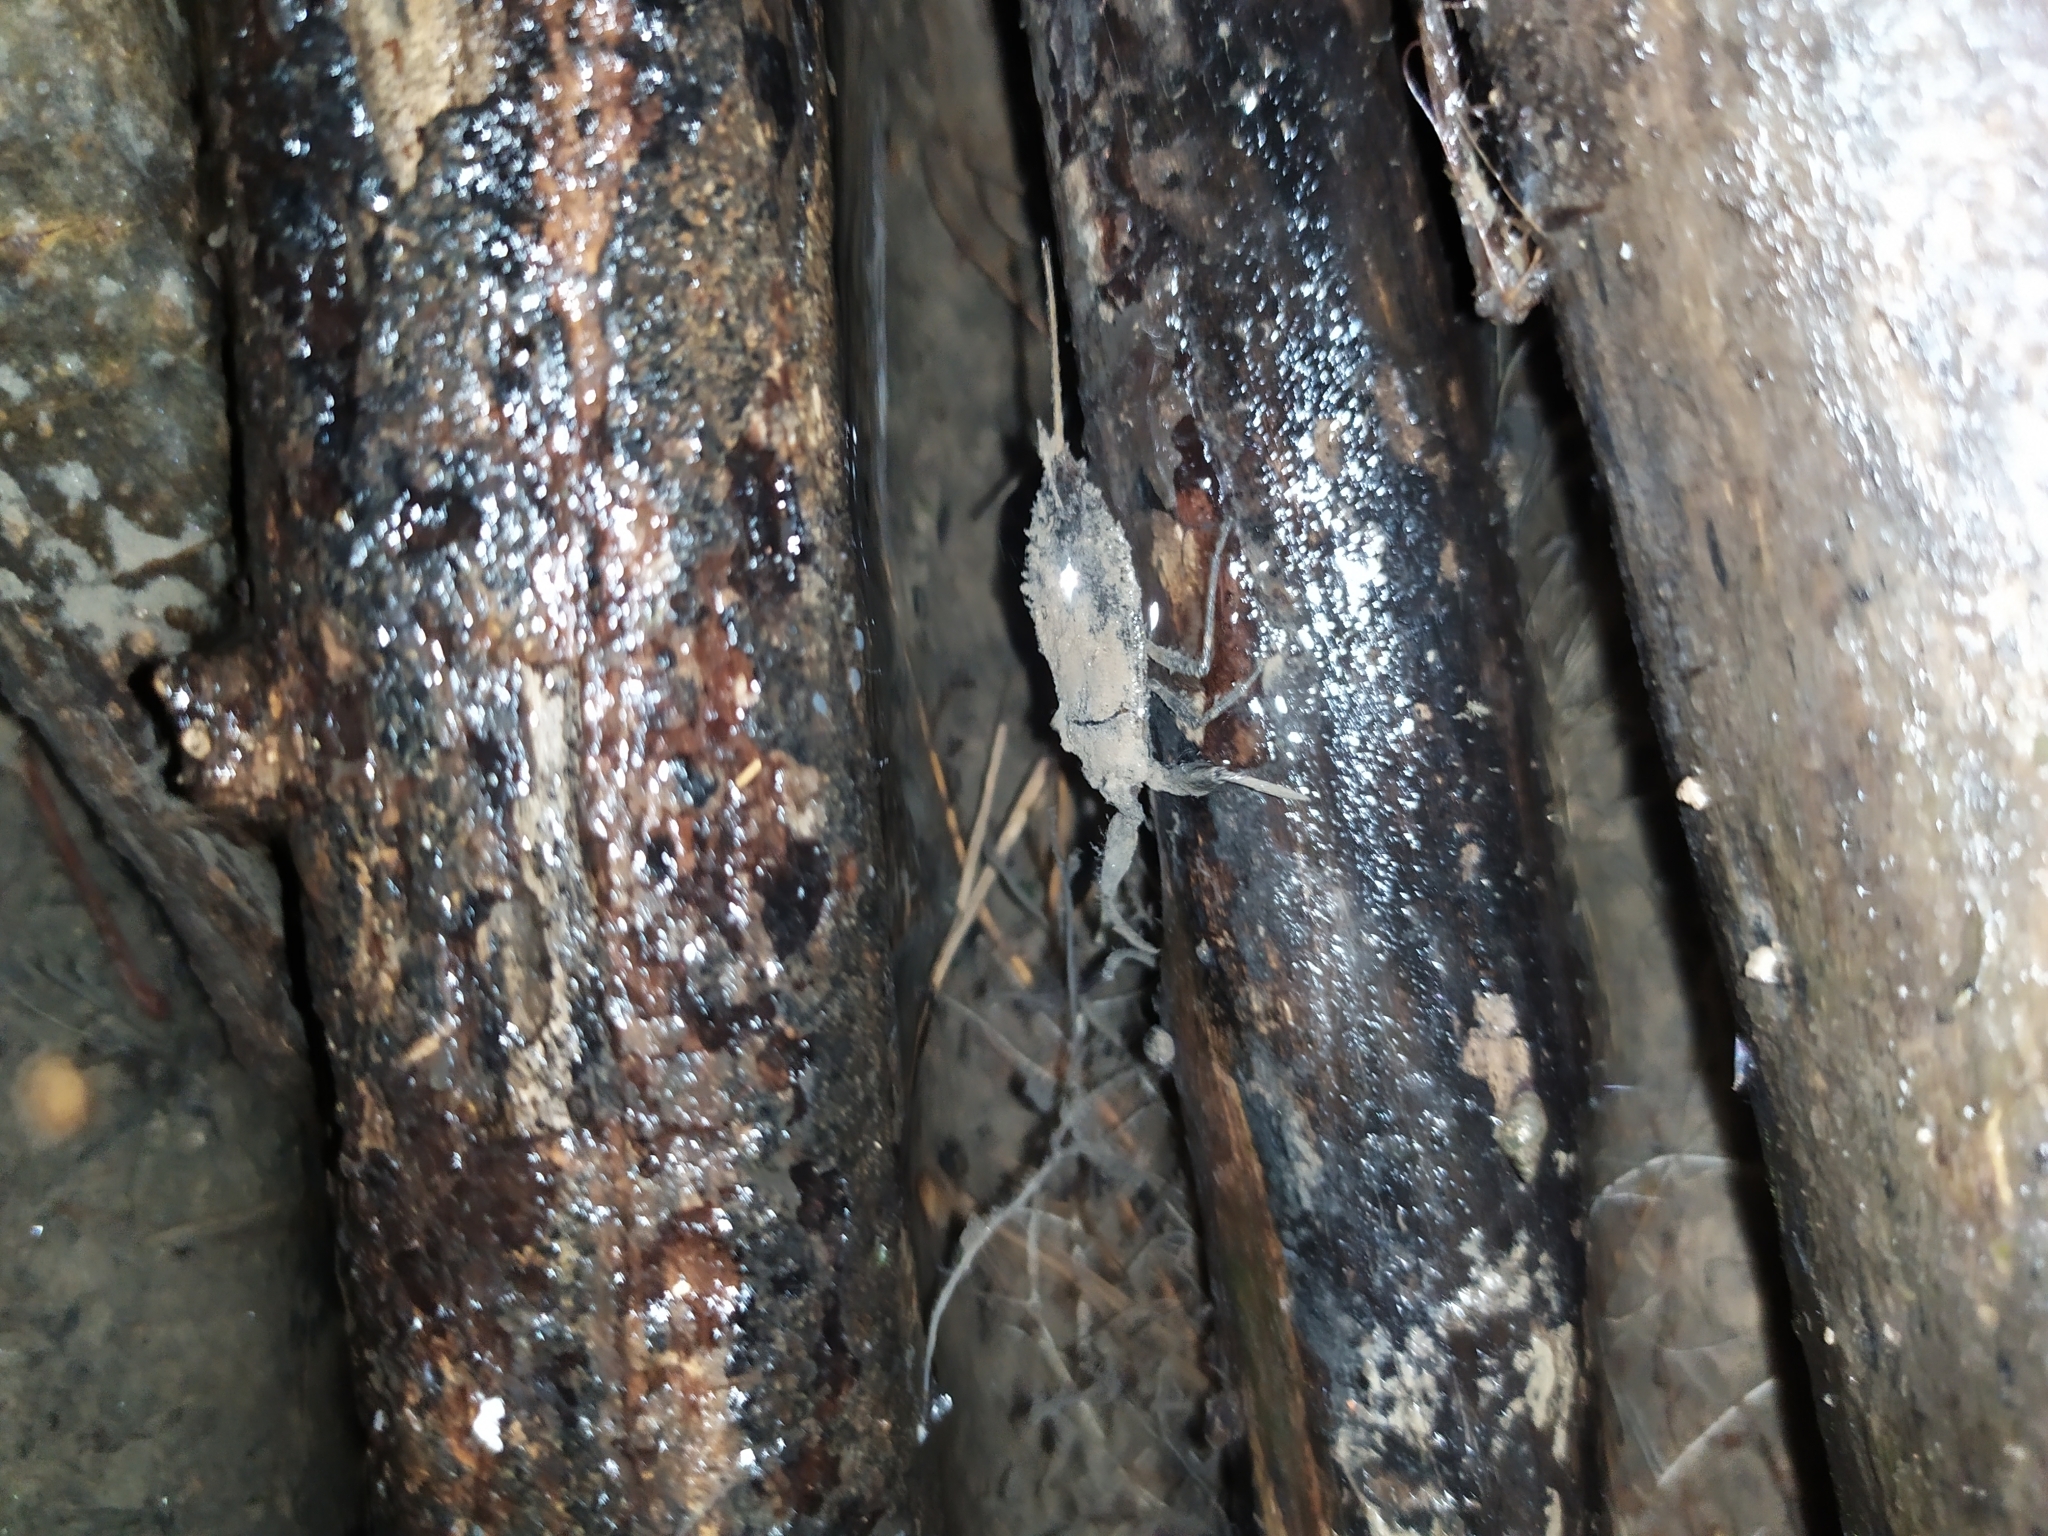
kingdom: Animalia
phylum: Arthropoda
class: Insecta
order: Hemiptera
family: Nepidae
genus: Nepa
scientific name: Nepa cinerea
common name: Water scorpion
